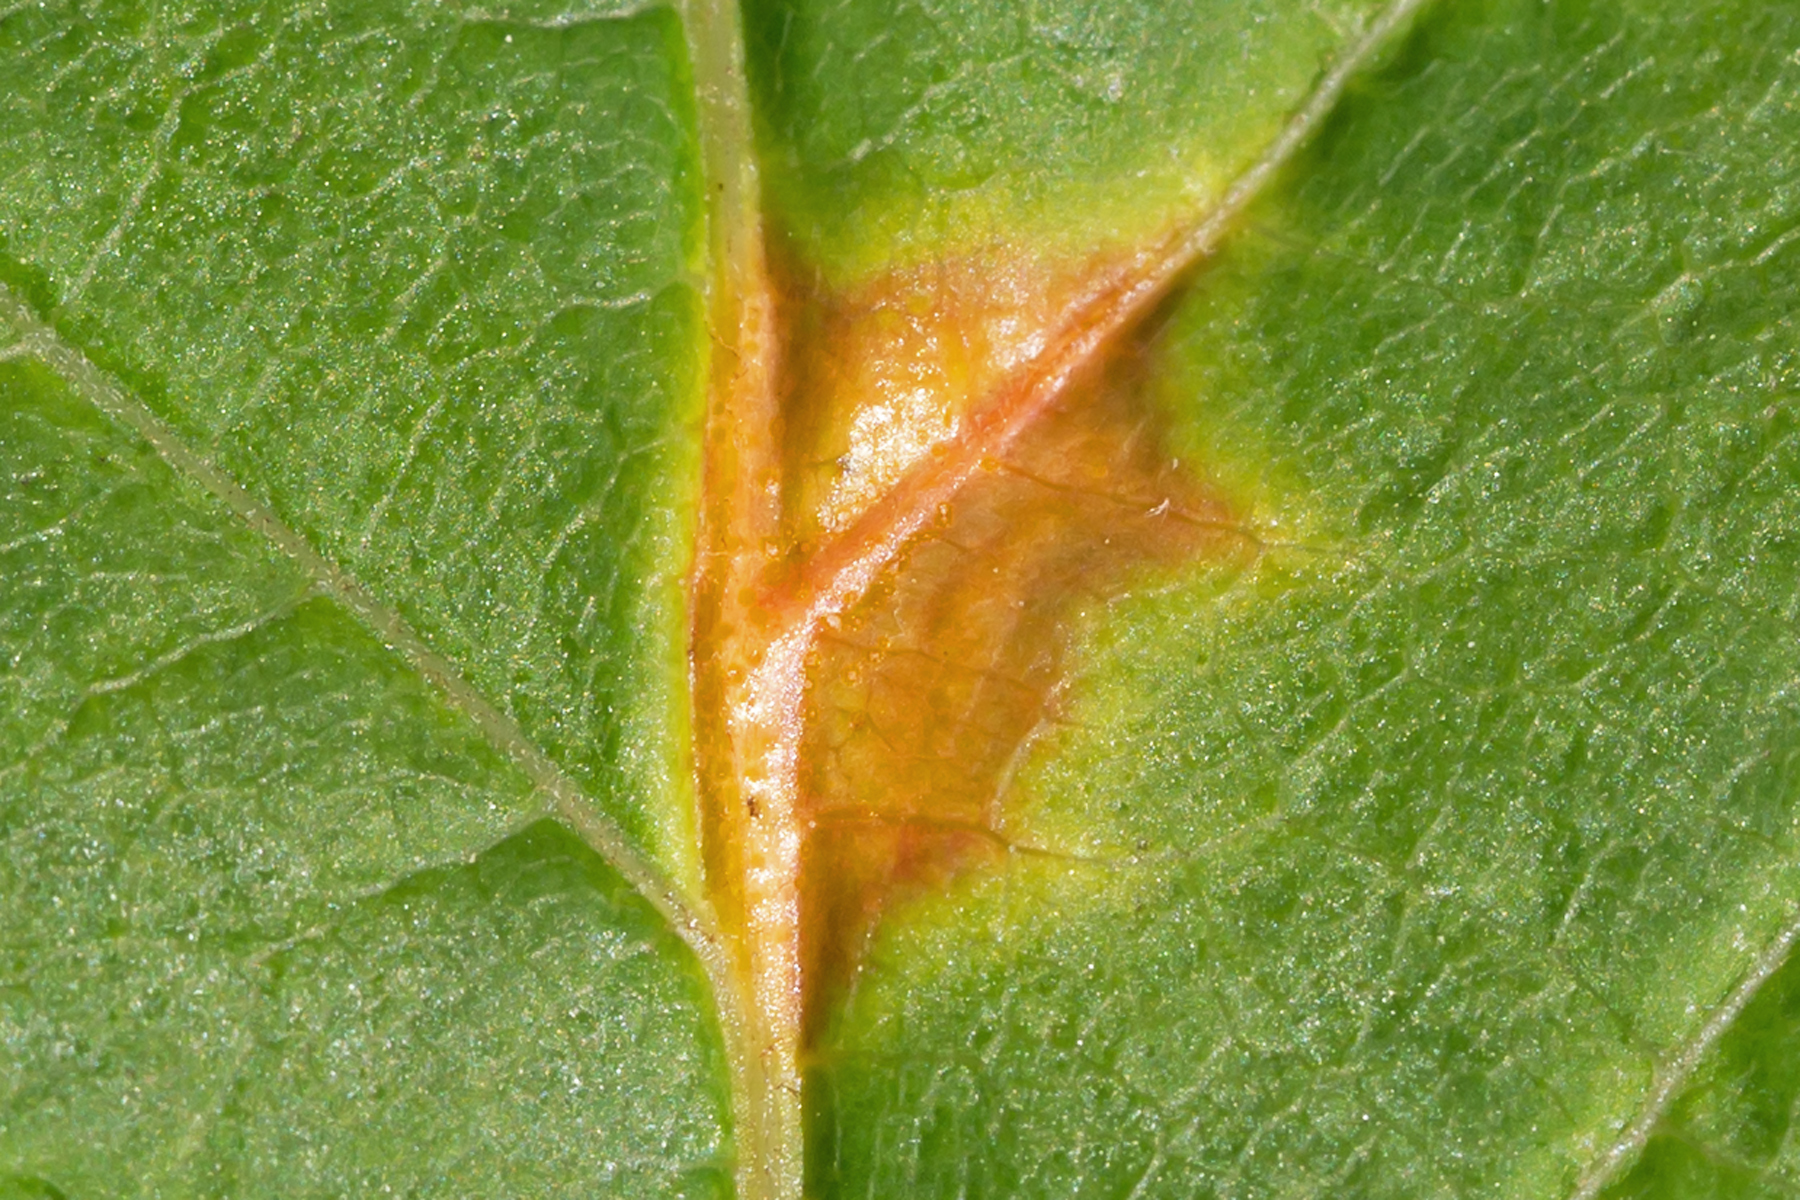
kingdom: Fungi
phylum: Basidiomycota
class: Pucciniomycetes
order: Pucciniales
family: Pucciniaceae
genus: Puccinia
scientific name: Puccinia andropogonis
